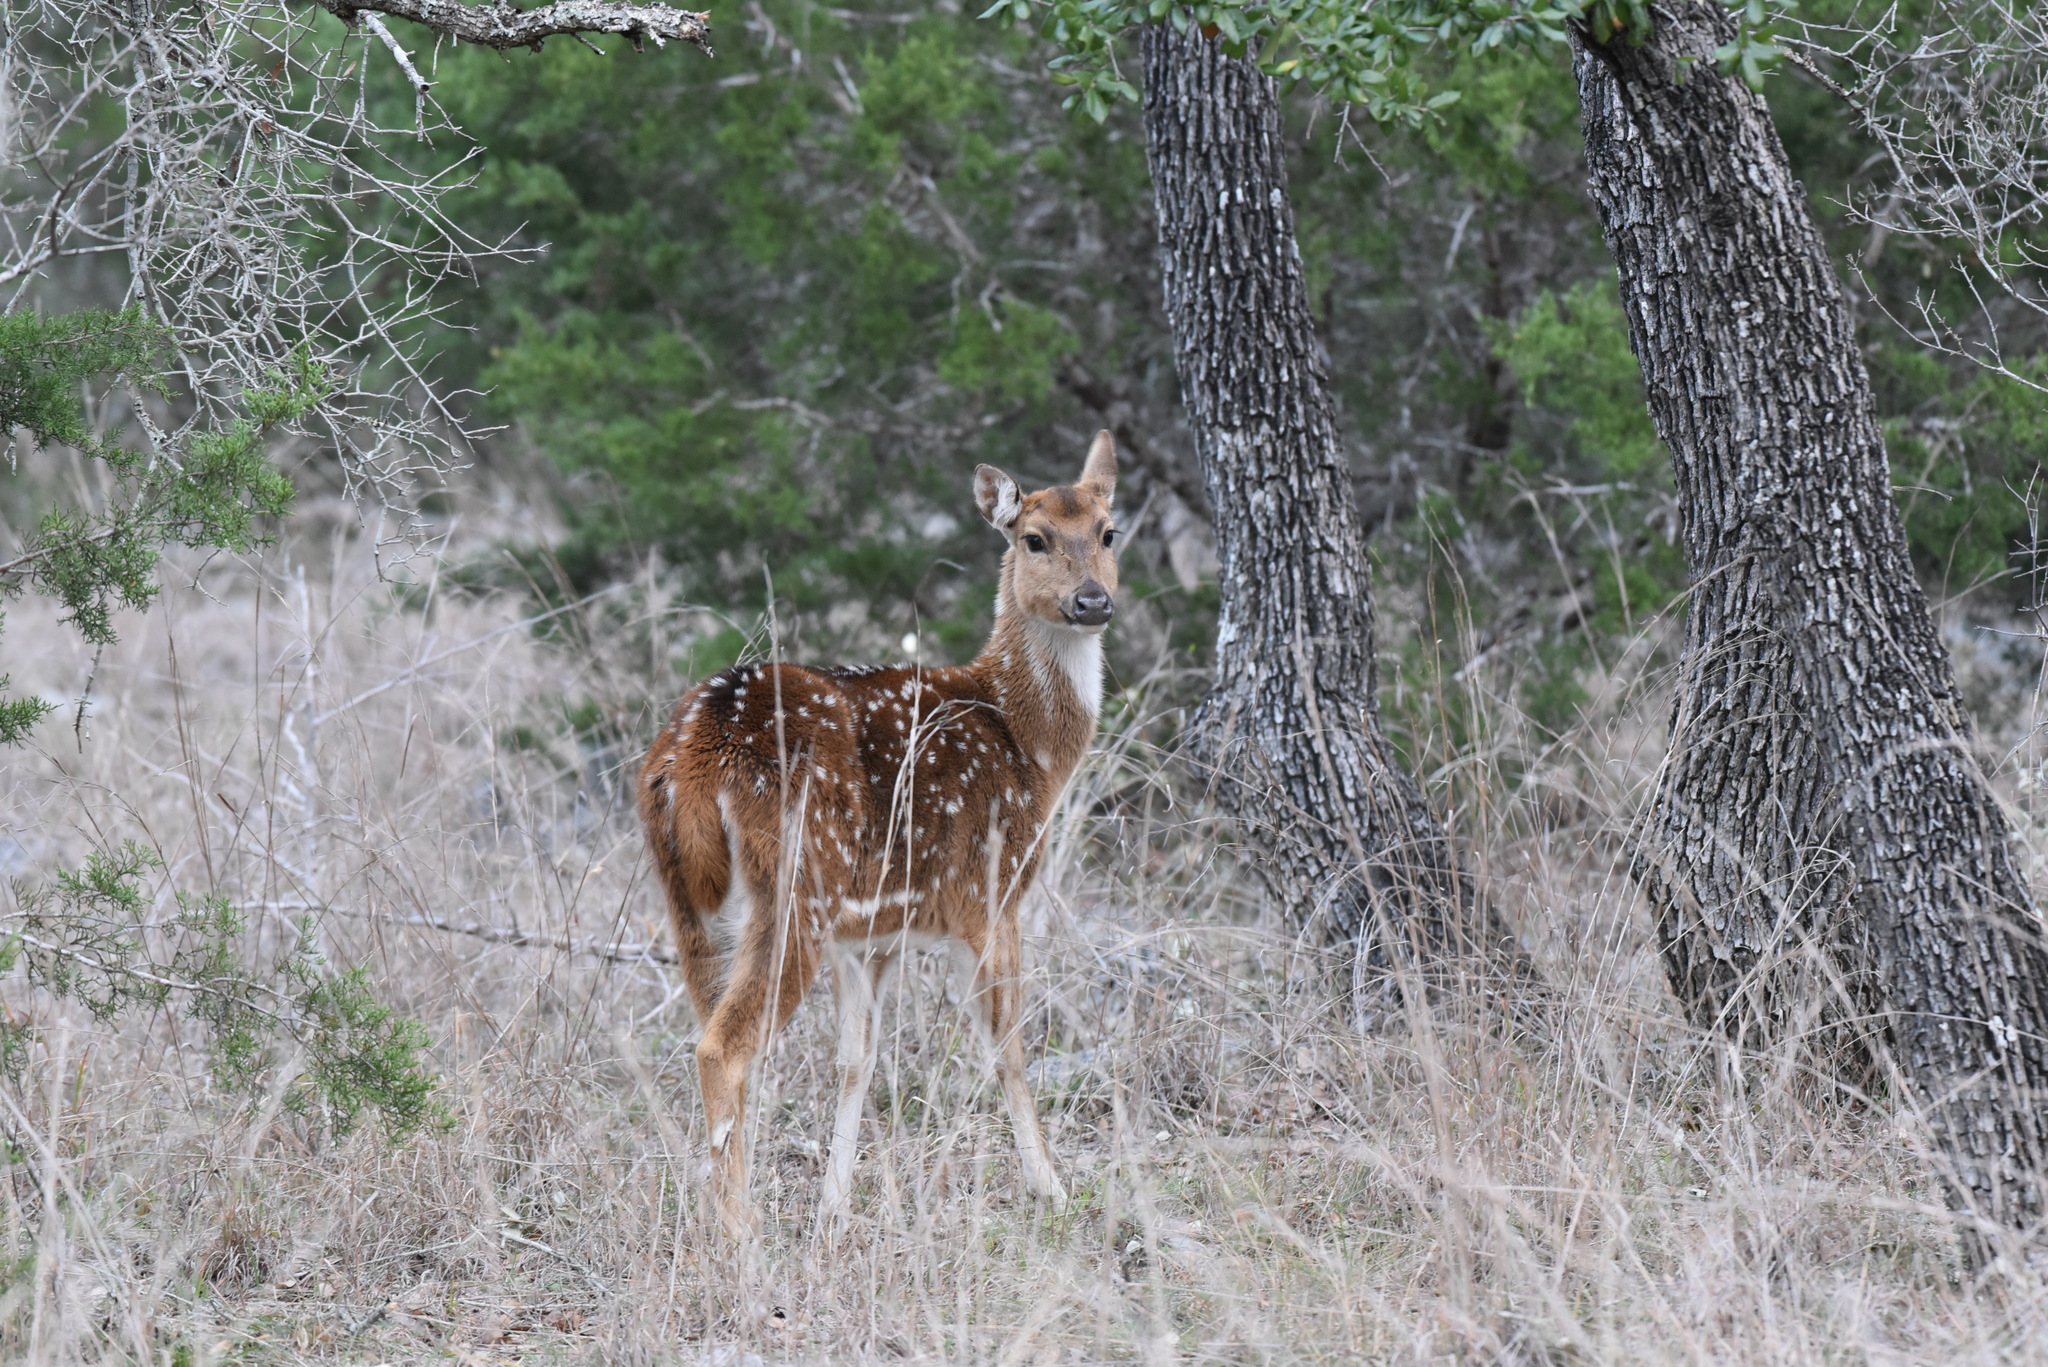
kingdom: Animalia
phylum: Chordata
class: Mammalia
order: Artiodactyla
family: Cervidae
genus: Axis
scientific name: Axis axis
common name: Chital
